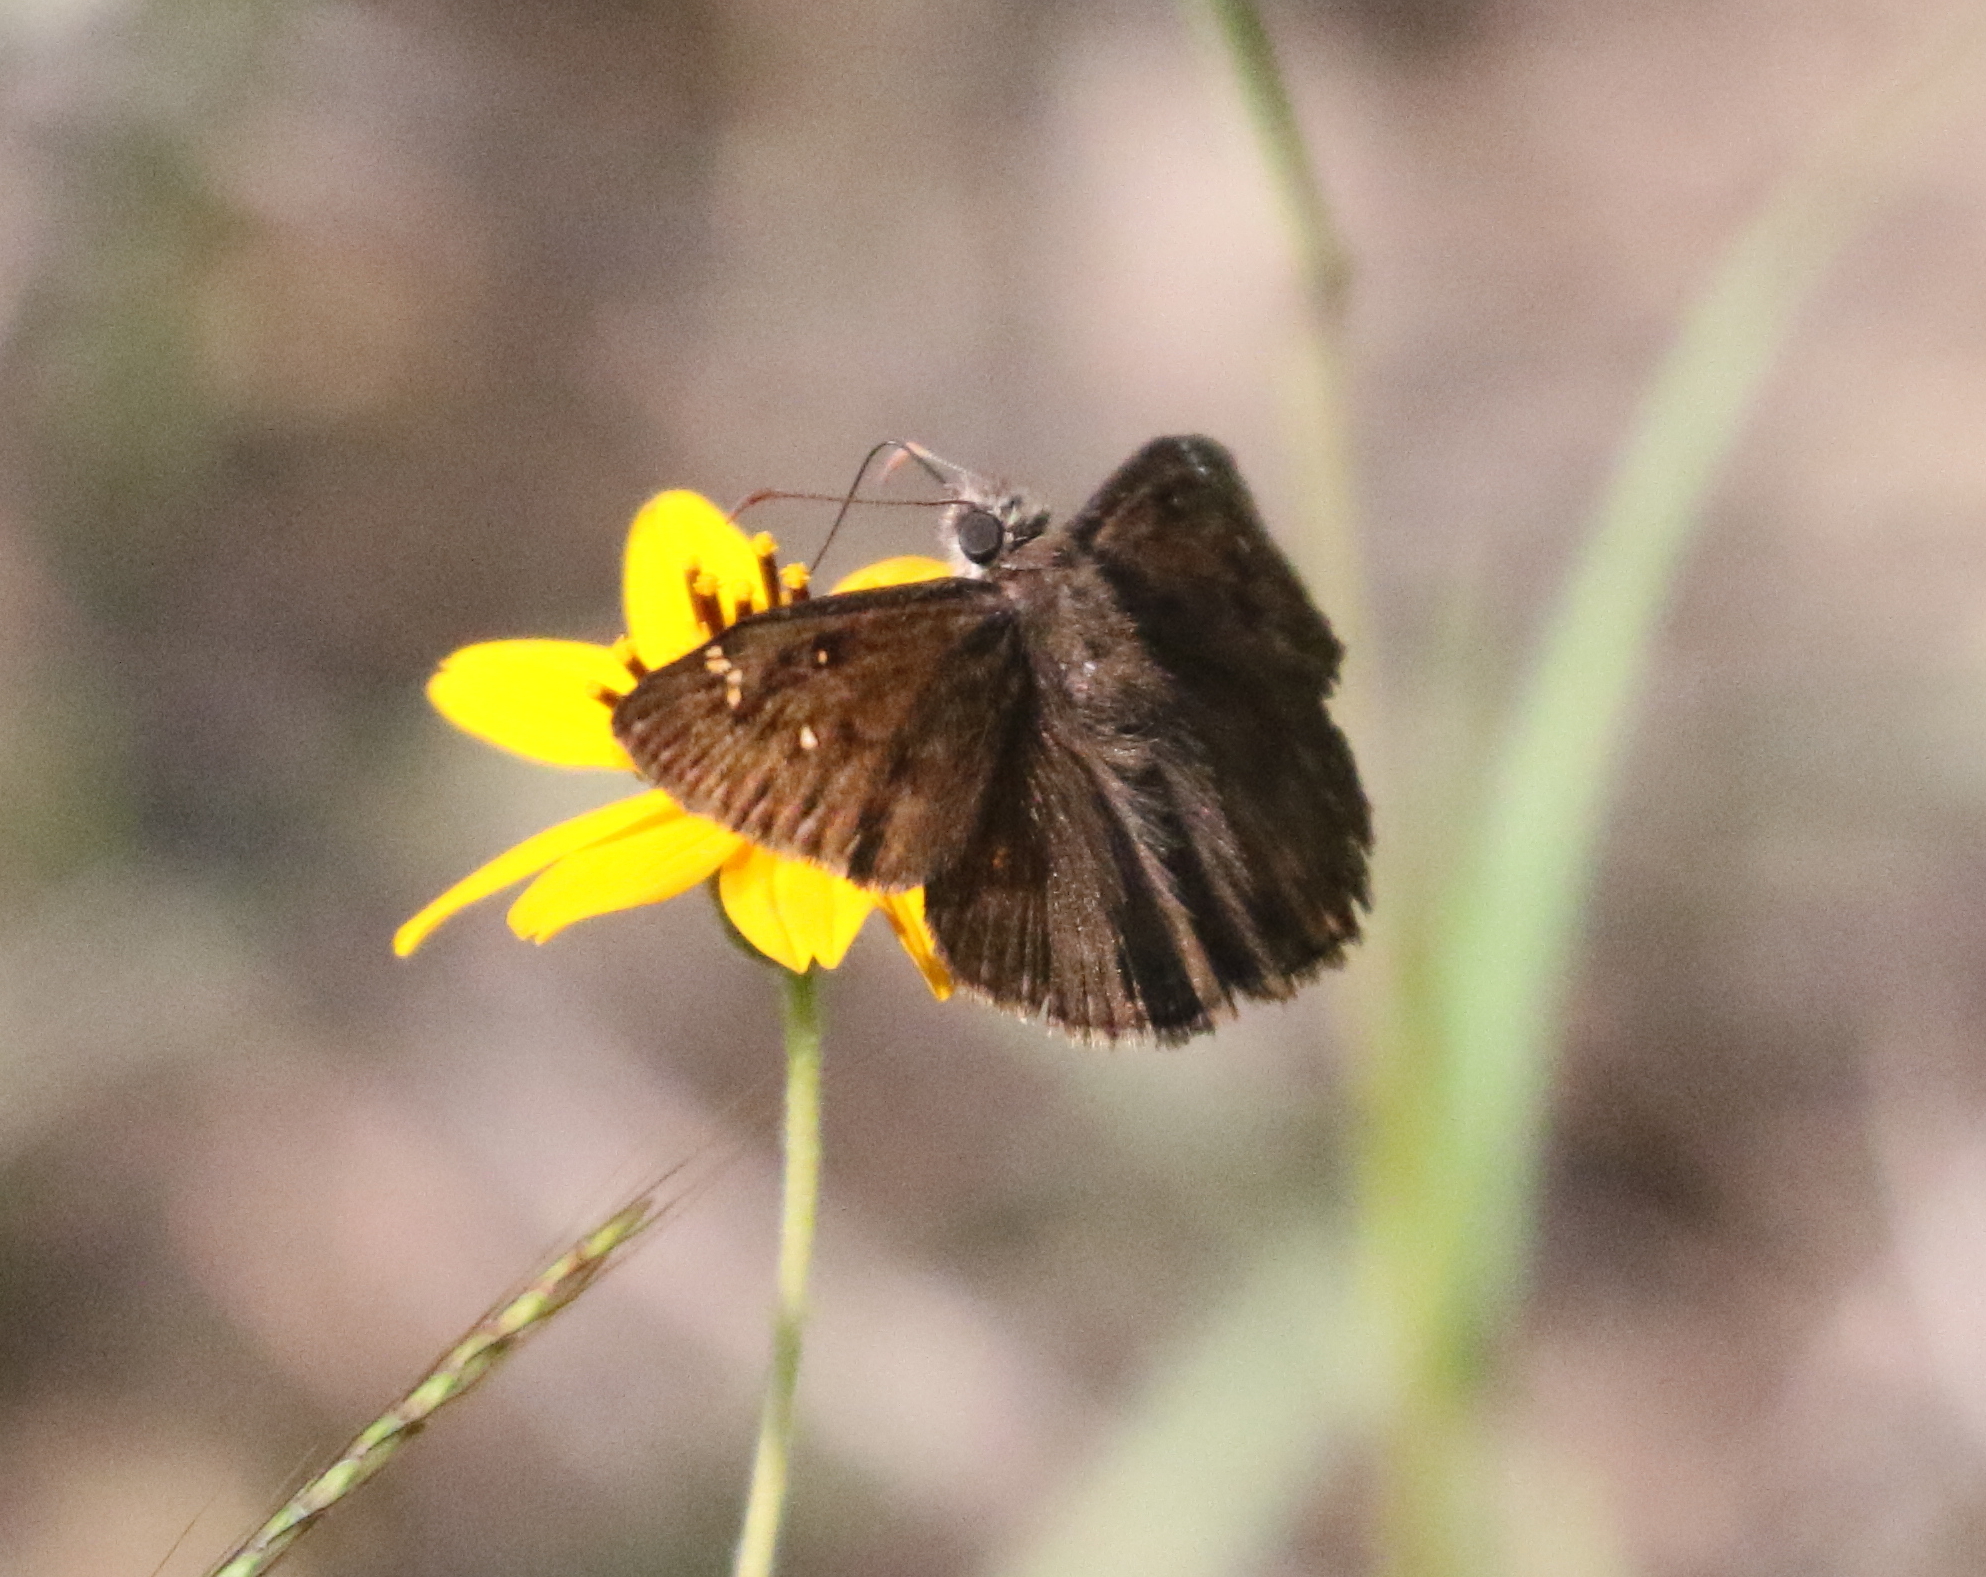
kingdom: Animalia
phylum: Arthropoda
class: Insecta
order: Lepidoptera
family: Hesperiidae
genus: Erynnis
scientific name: Erynnis horatius
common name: Horace's duskywing
